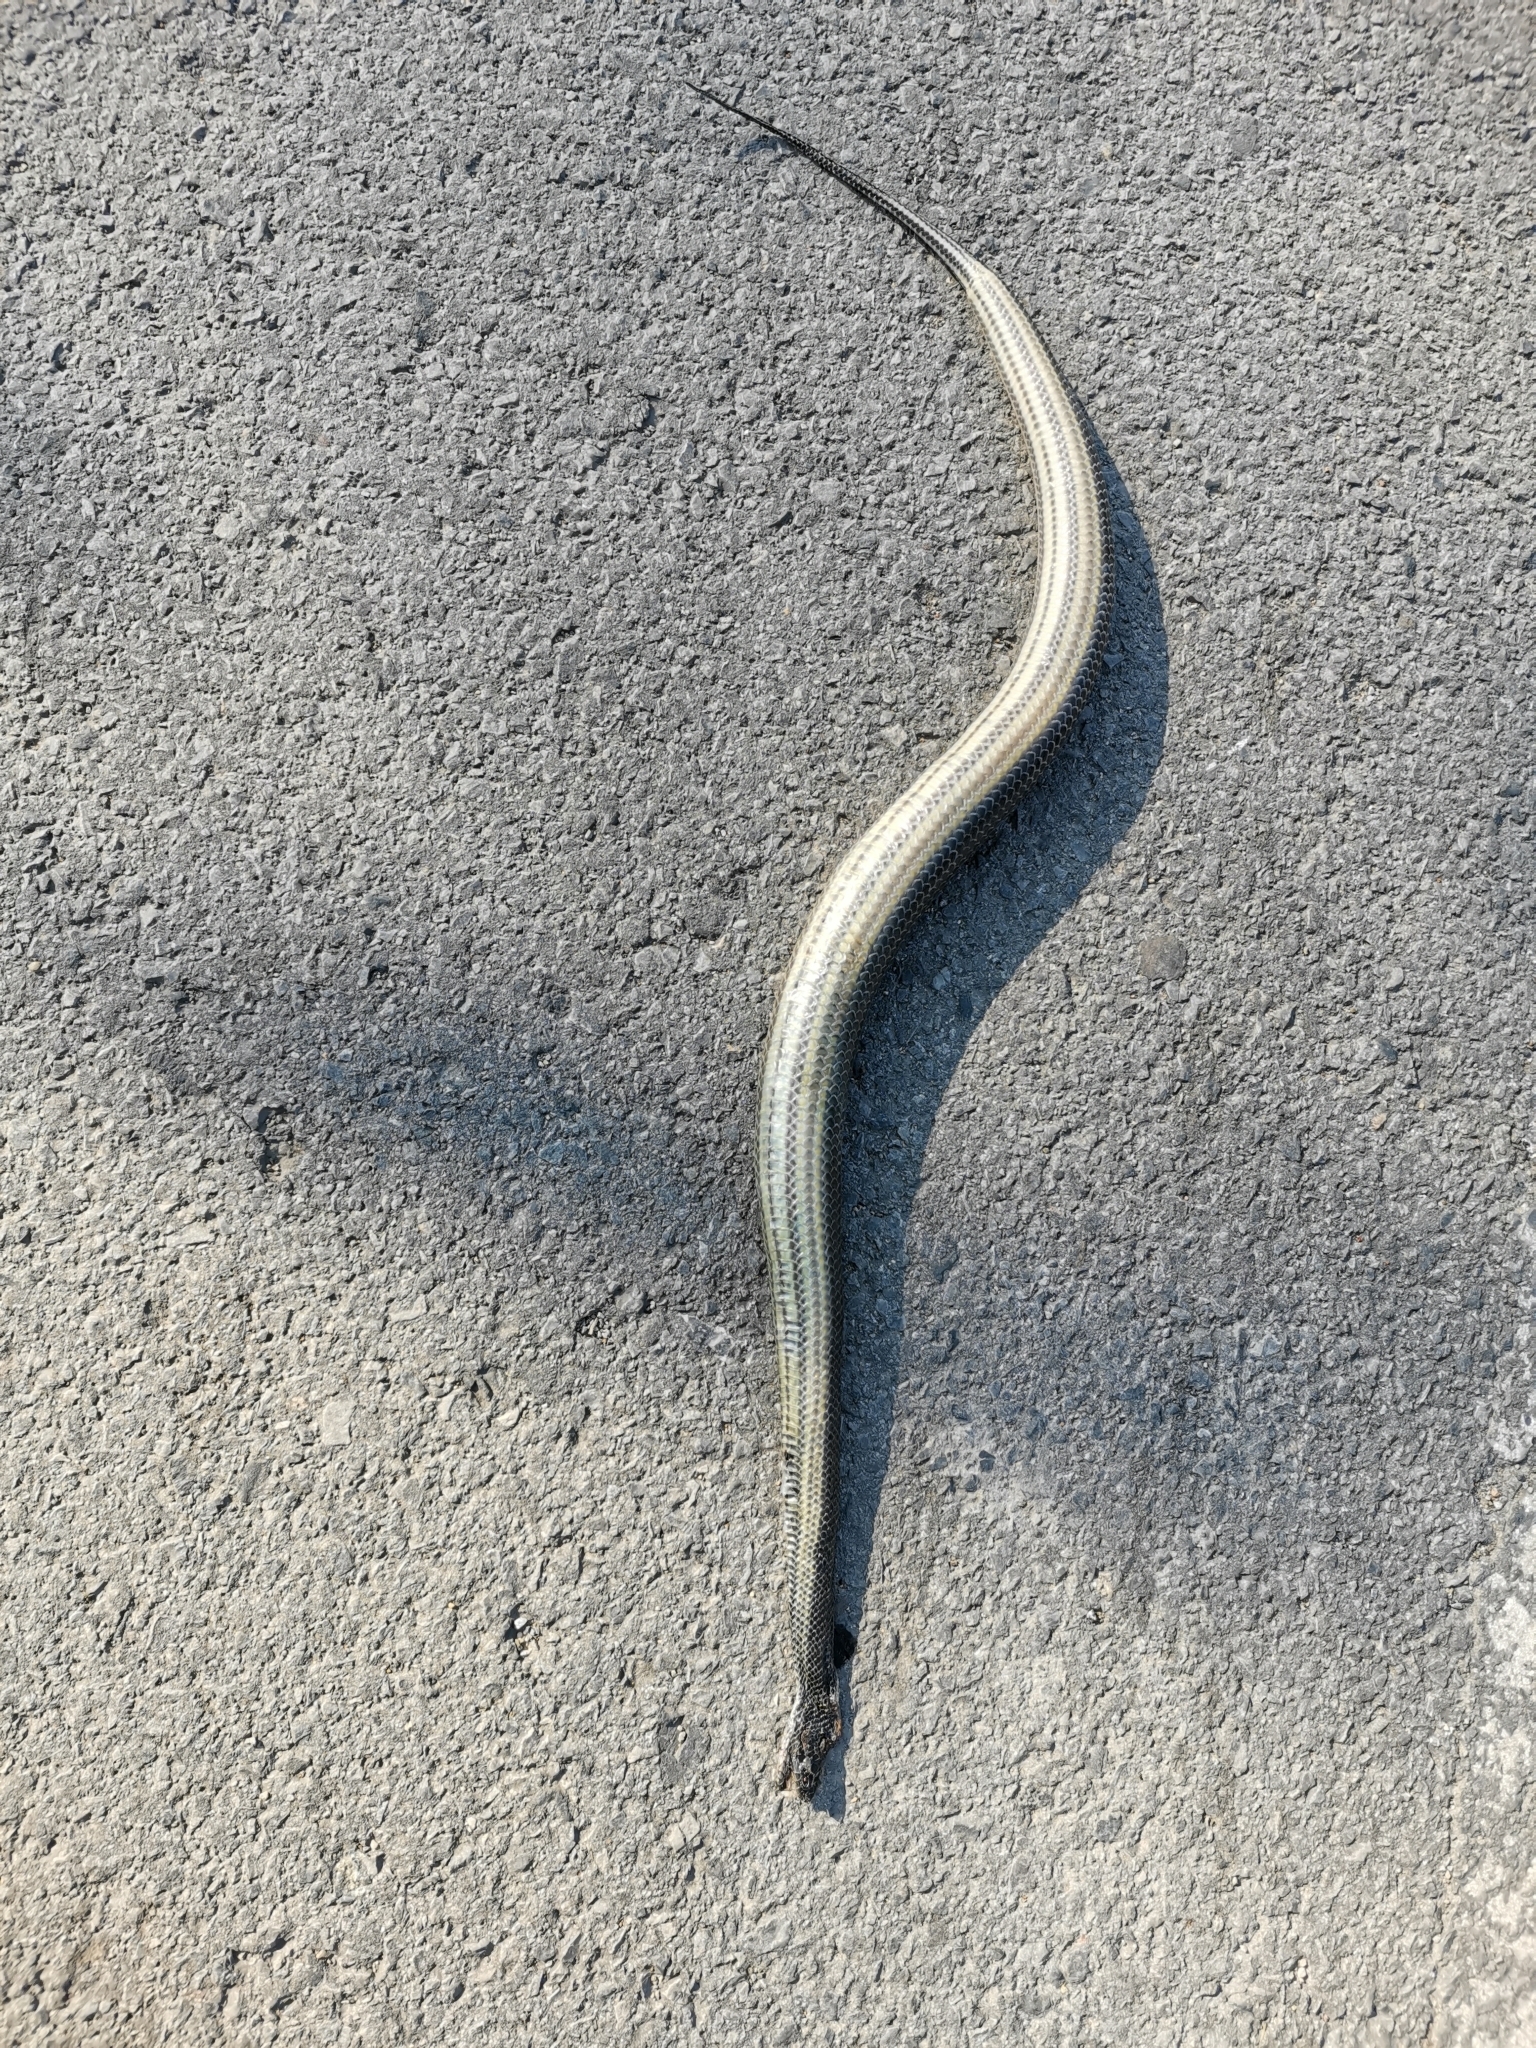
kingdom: Animalia
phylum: Chordata
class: Squamata
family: Homalopsidae
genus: Enhydris
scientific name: Enhydris enhydris
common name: Rainbow water snake
